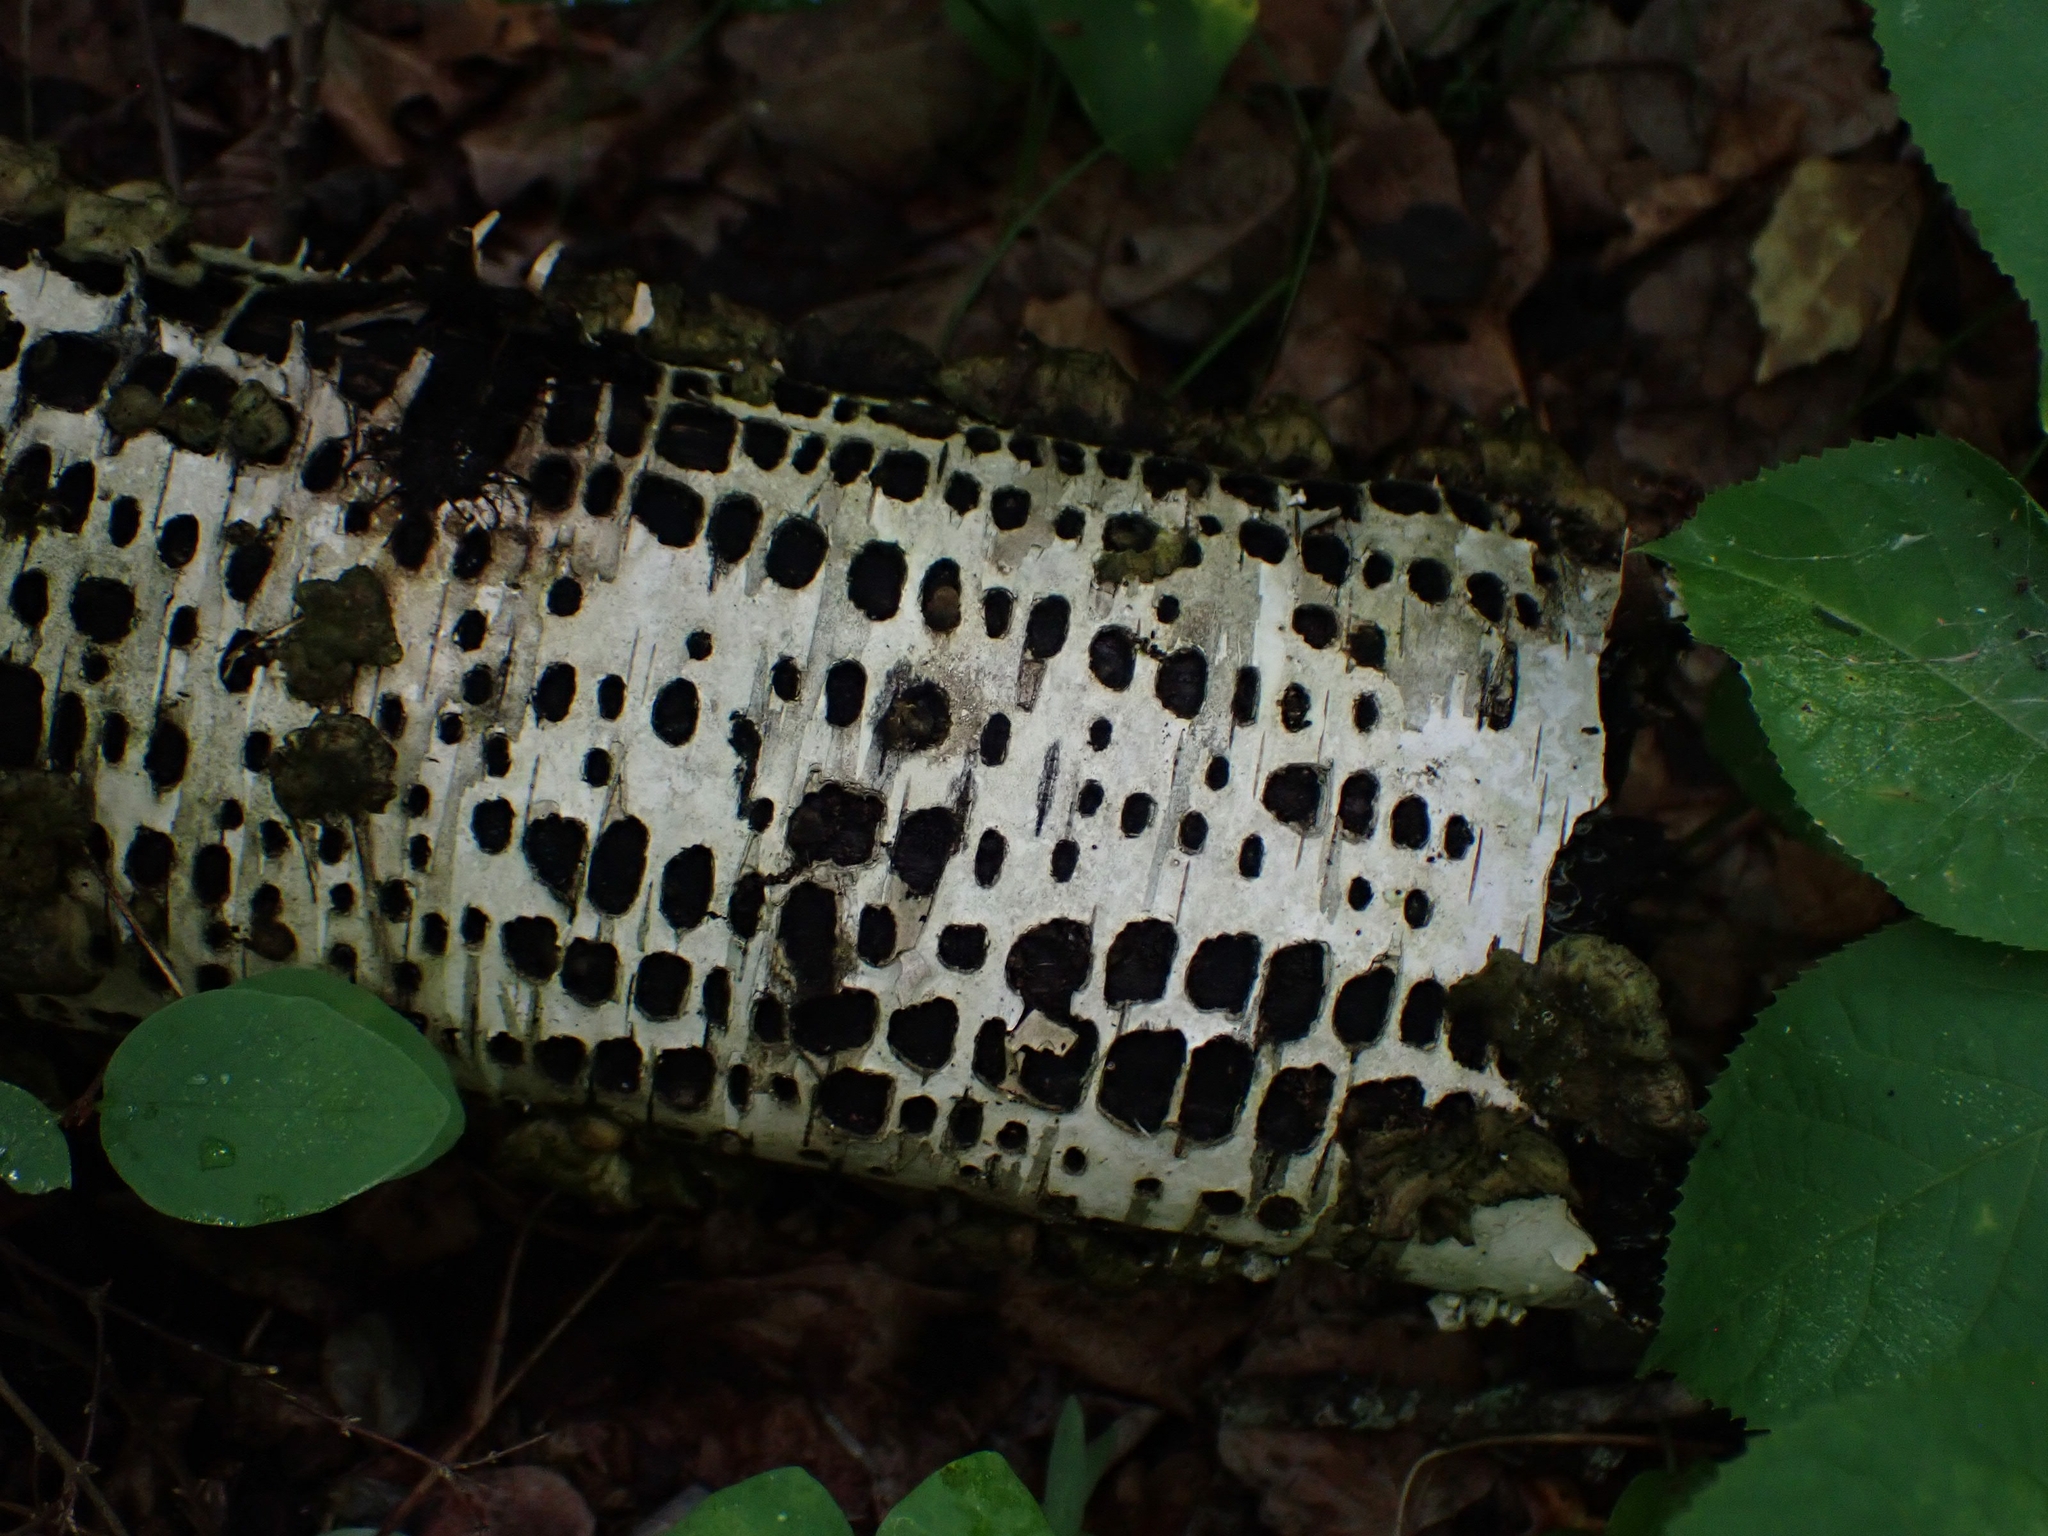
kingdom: Animalia
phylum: Chordata
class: Aves
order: Piciformes
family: Picidae
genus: Sphyrapicus
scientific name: Sphyrapicus varius
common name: Yellow-bellied sapsucker
